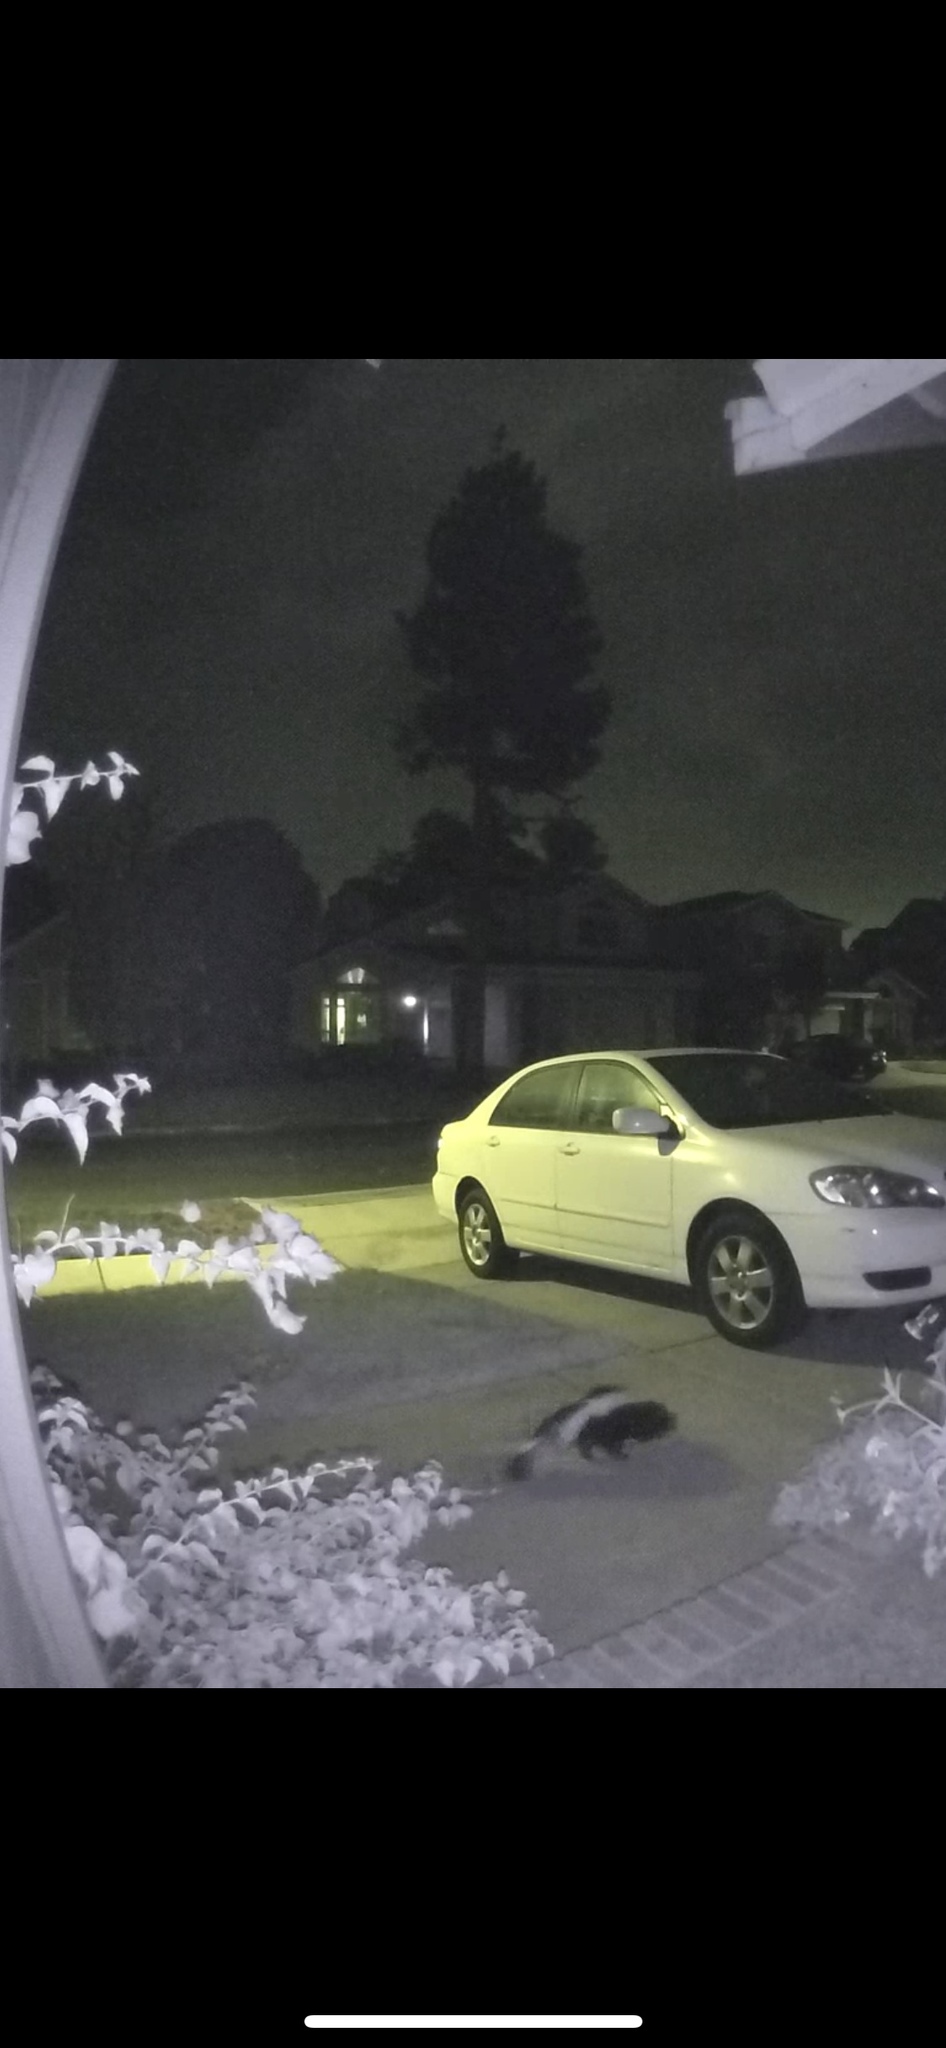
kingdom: Animalia
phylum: Chordata
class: Mammalia
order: Carnivora
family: Mephitidae
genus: Mephitis
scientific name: Mephitis mephitis
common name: Striped skunk
